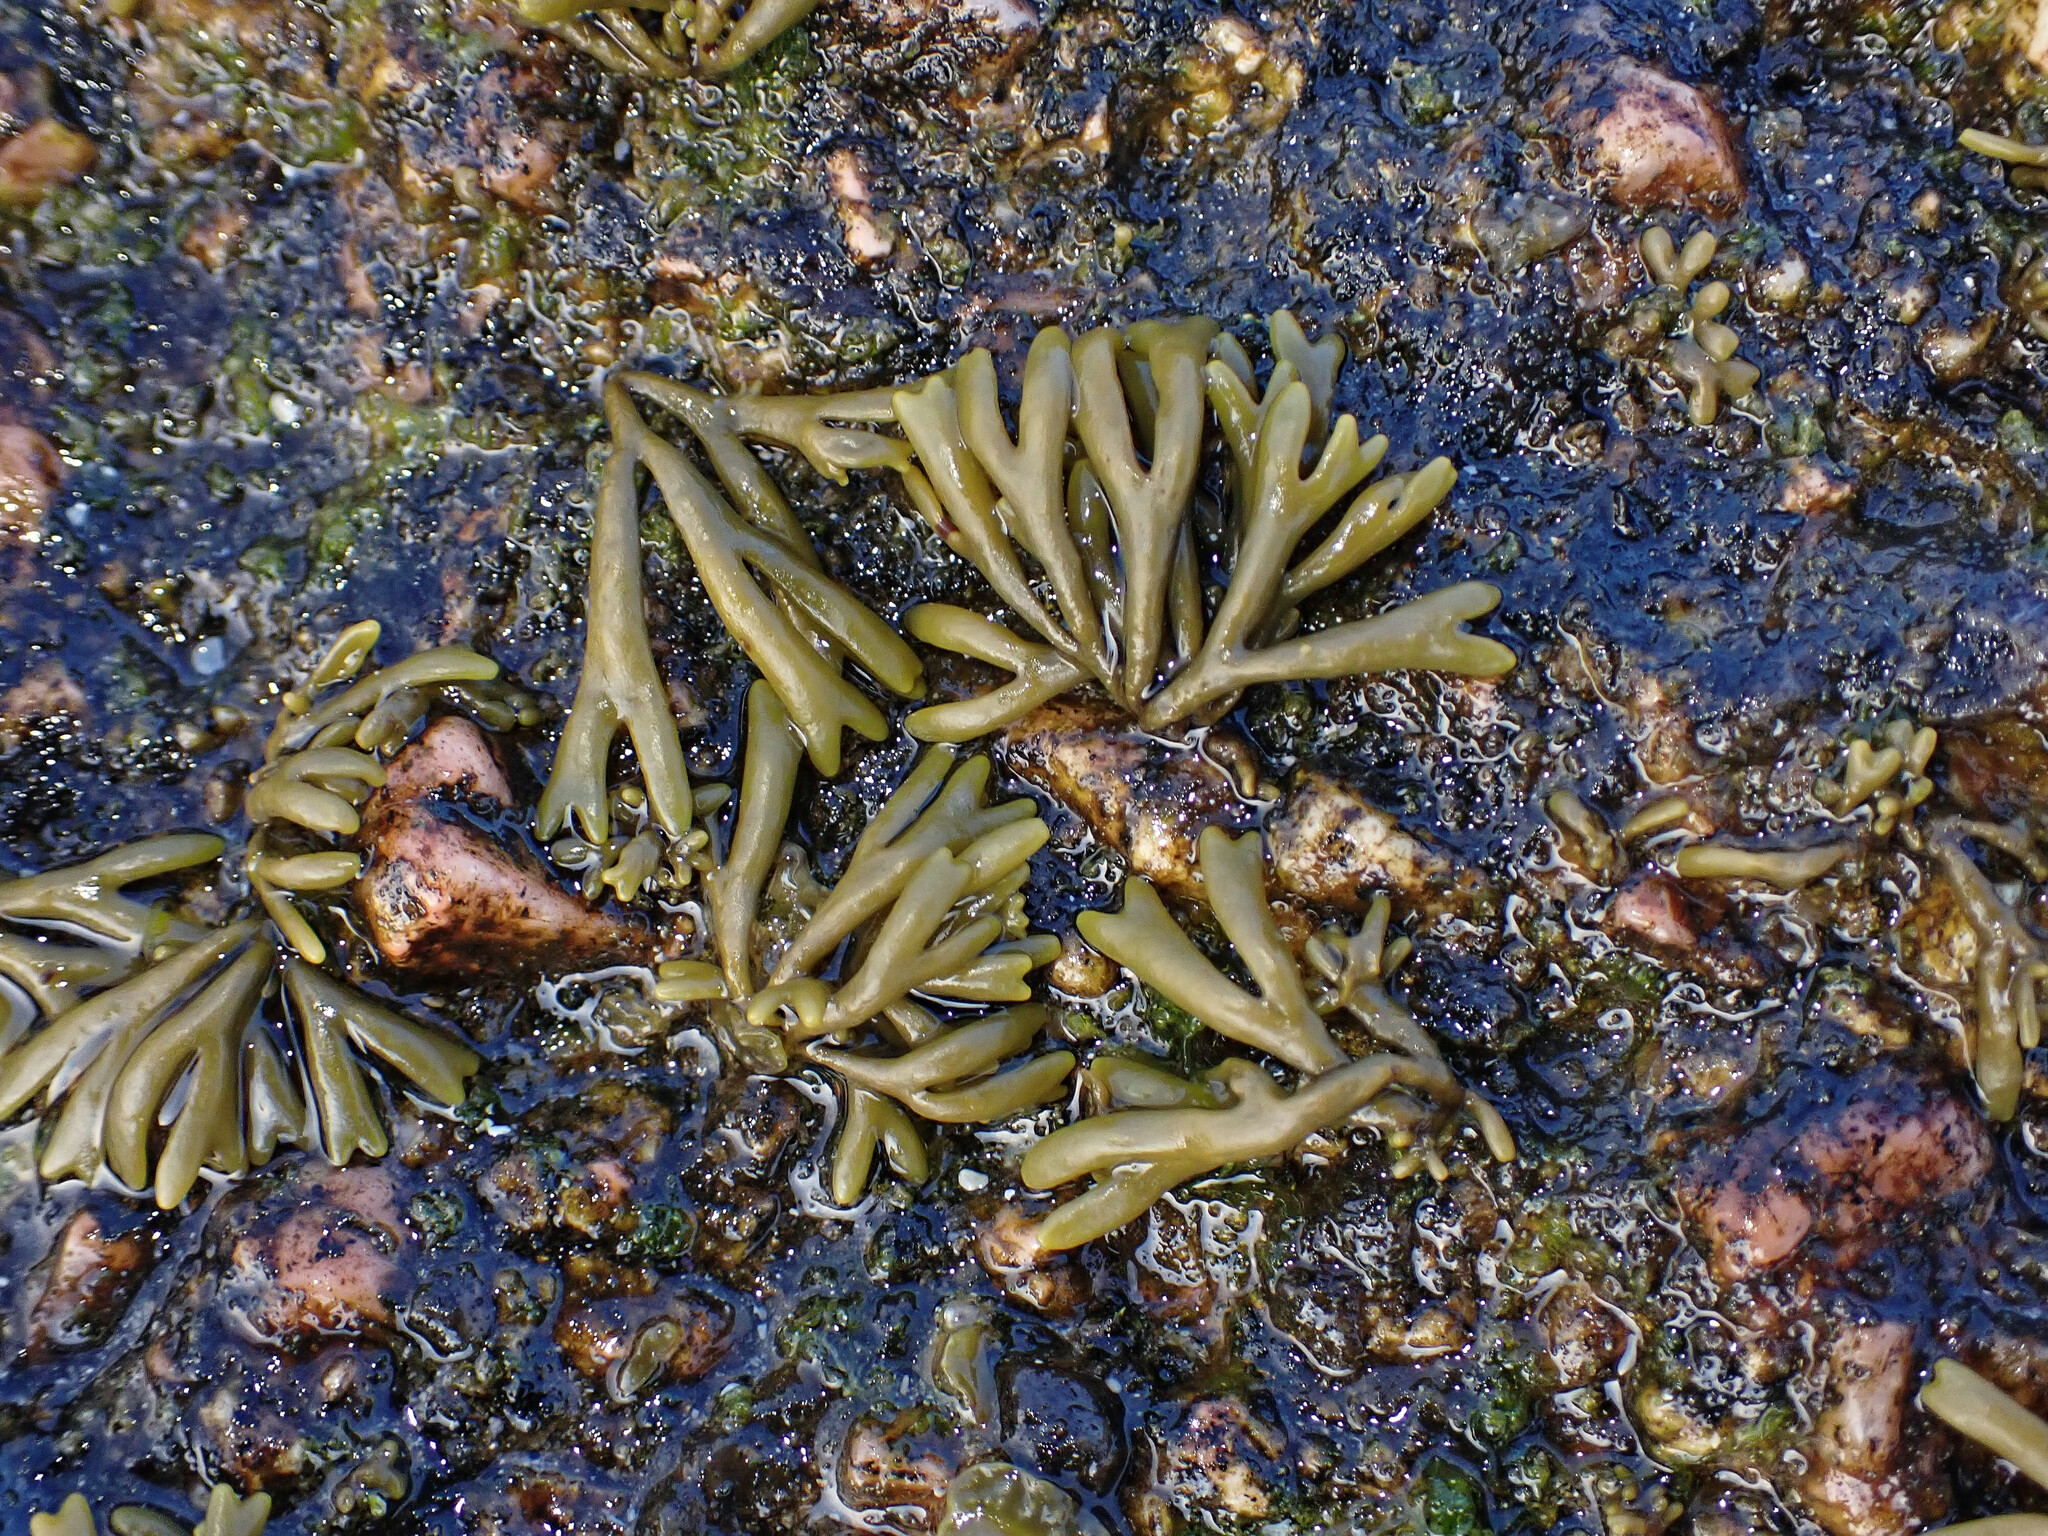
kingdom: Chromista
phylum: Ochrophyta
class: Phaeophyceae
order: Fucales
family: Fucaceae
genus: Pelvetia
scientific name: Pelvetia canaliculata
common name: Channelled wrack
